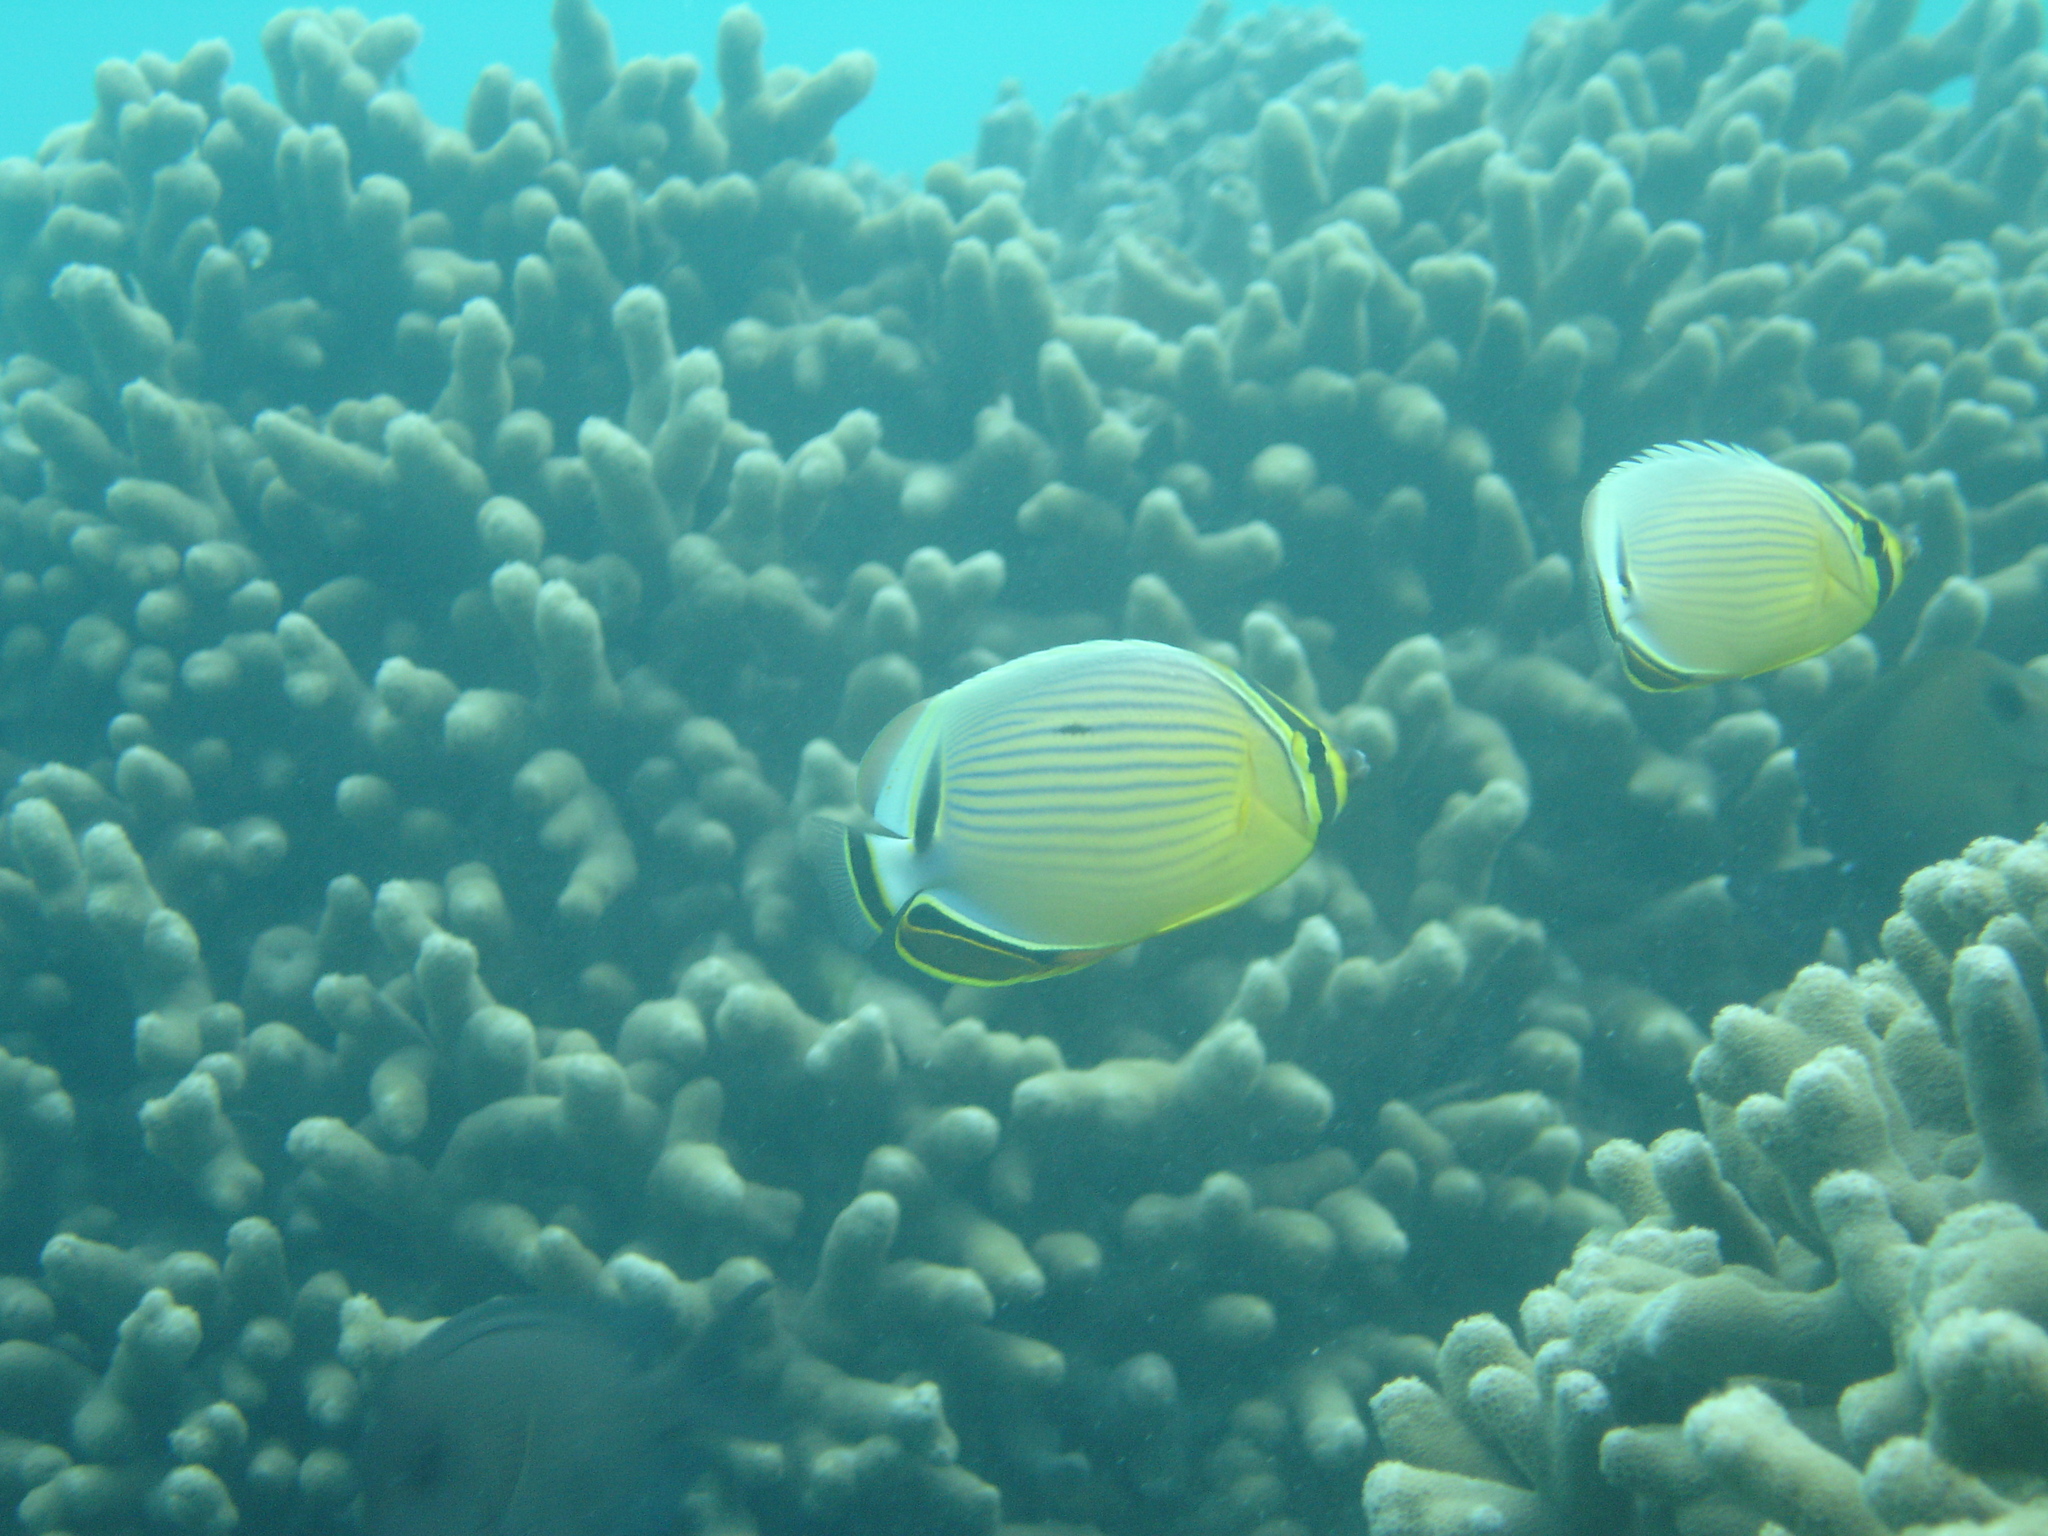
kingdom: Animalia
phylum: Chordata
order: Perciformes
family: Chaetodontidae
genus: Chaetodon
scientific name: Chaetodon lunulatus
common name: Redfin butterflyfish
